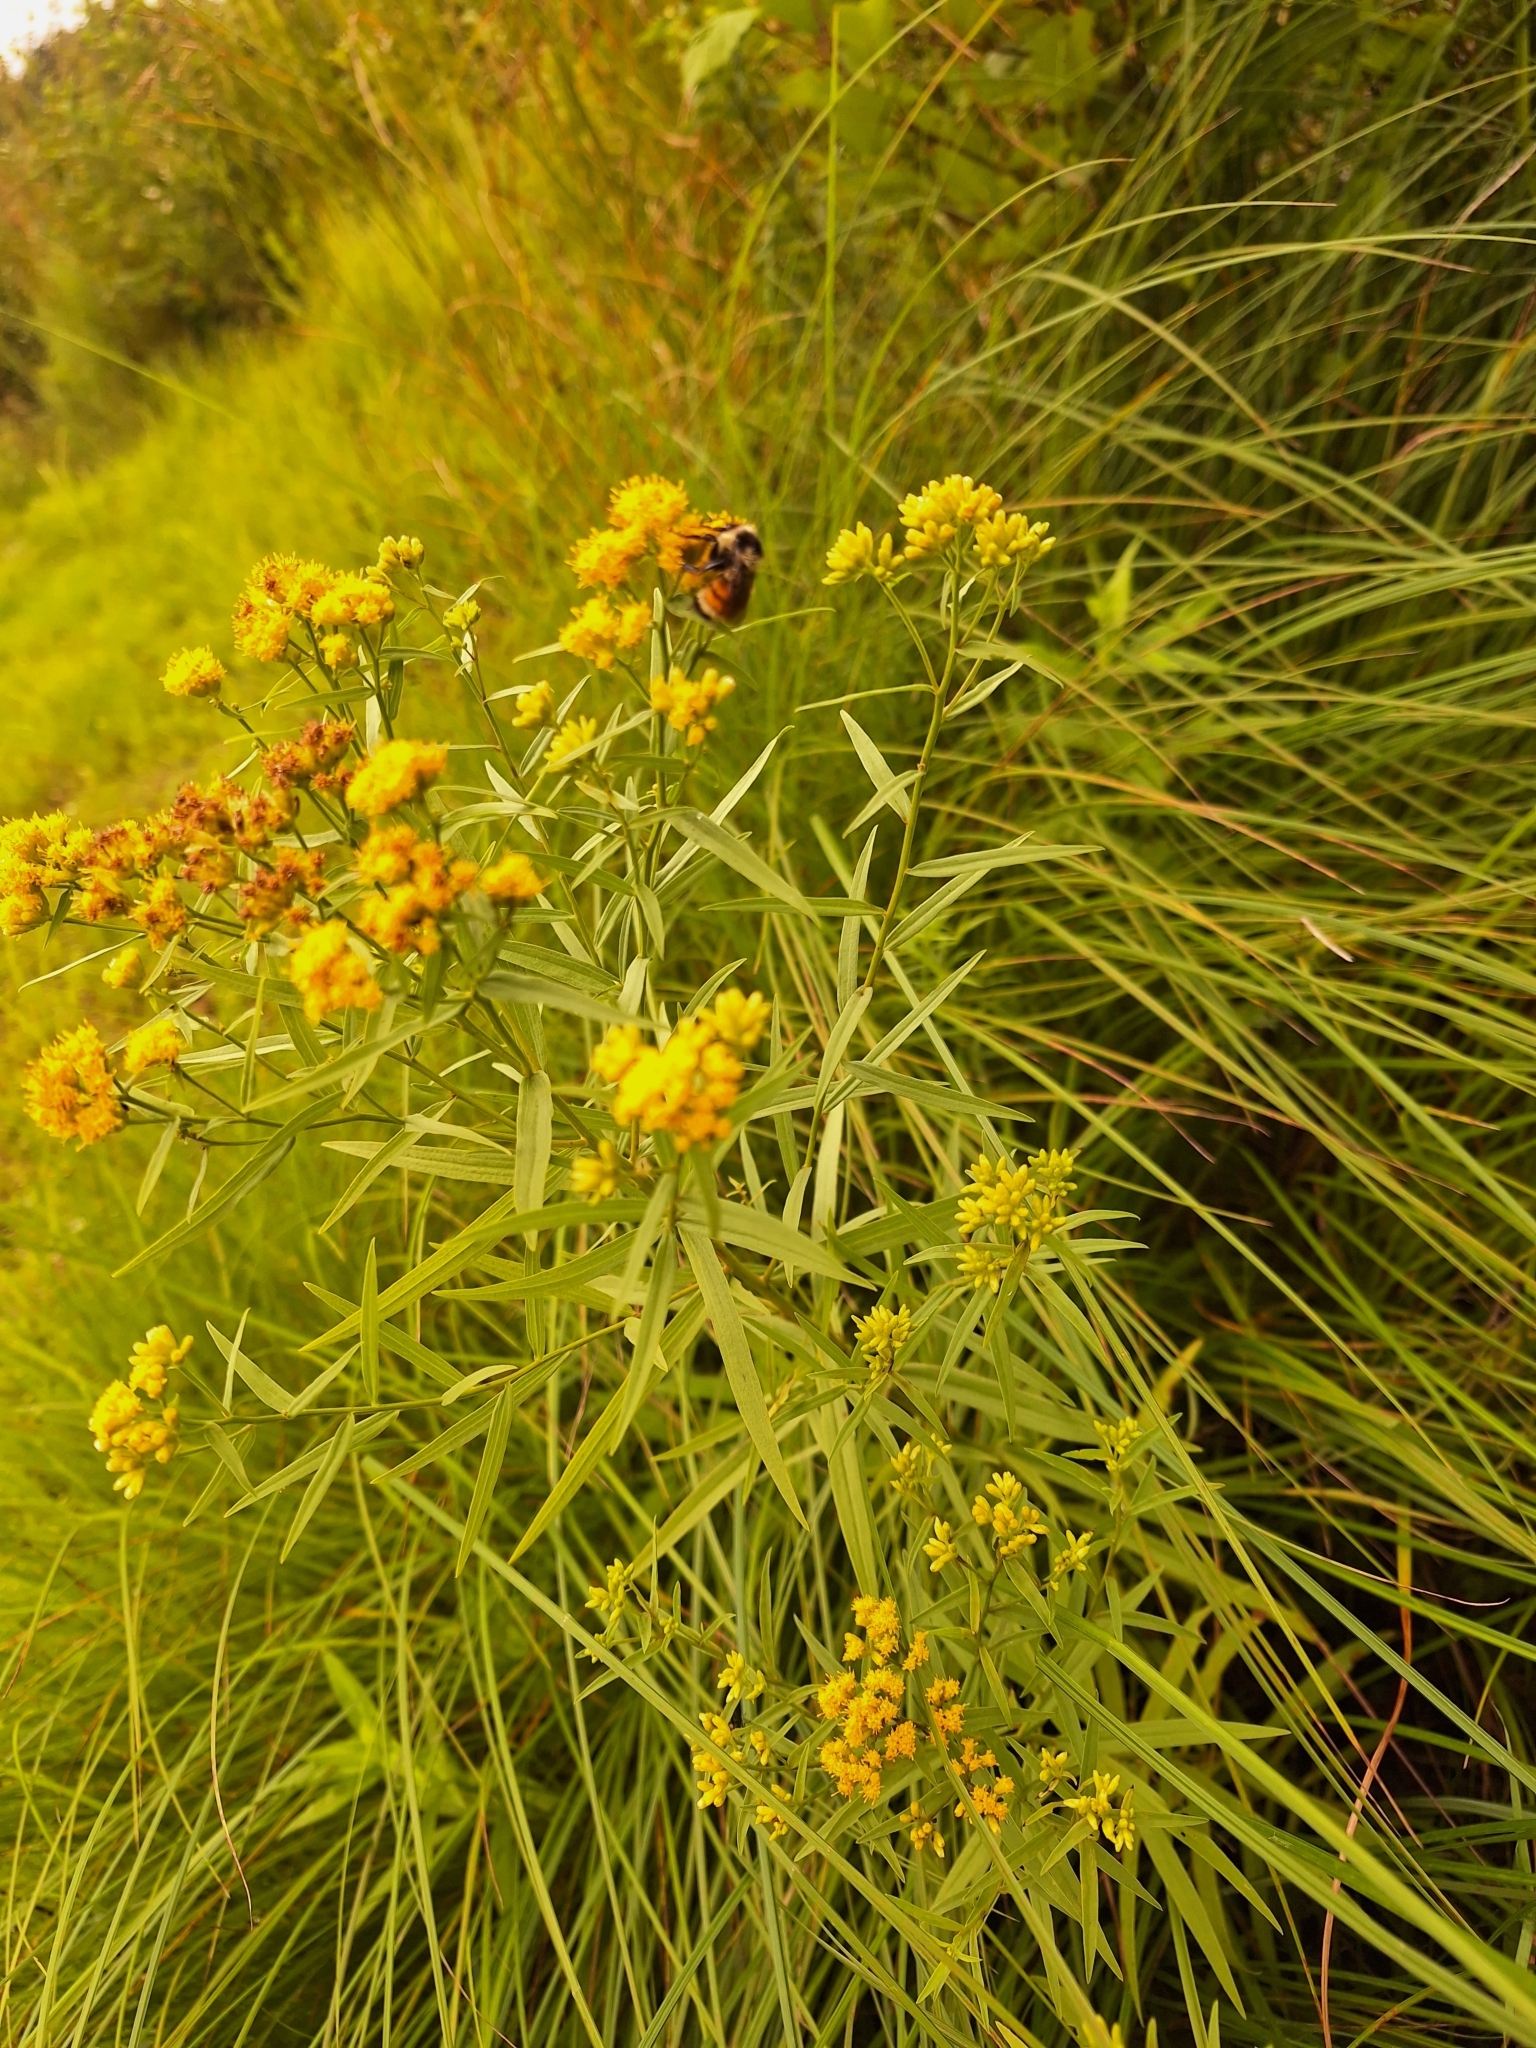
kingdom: Animalia
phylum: Arthropoda
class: Insecta
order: Hymenoptera
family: Apidae
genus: Bombus
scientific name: Bombus ternarius
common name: Tri-colored bumble bee
